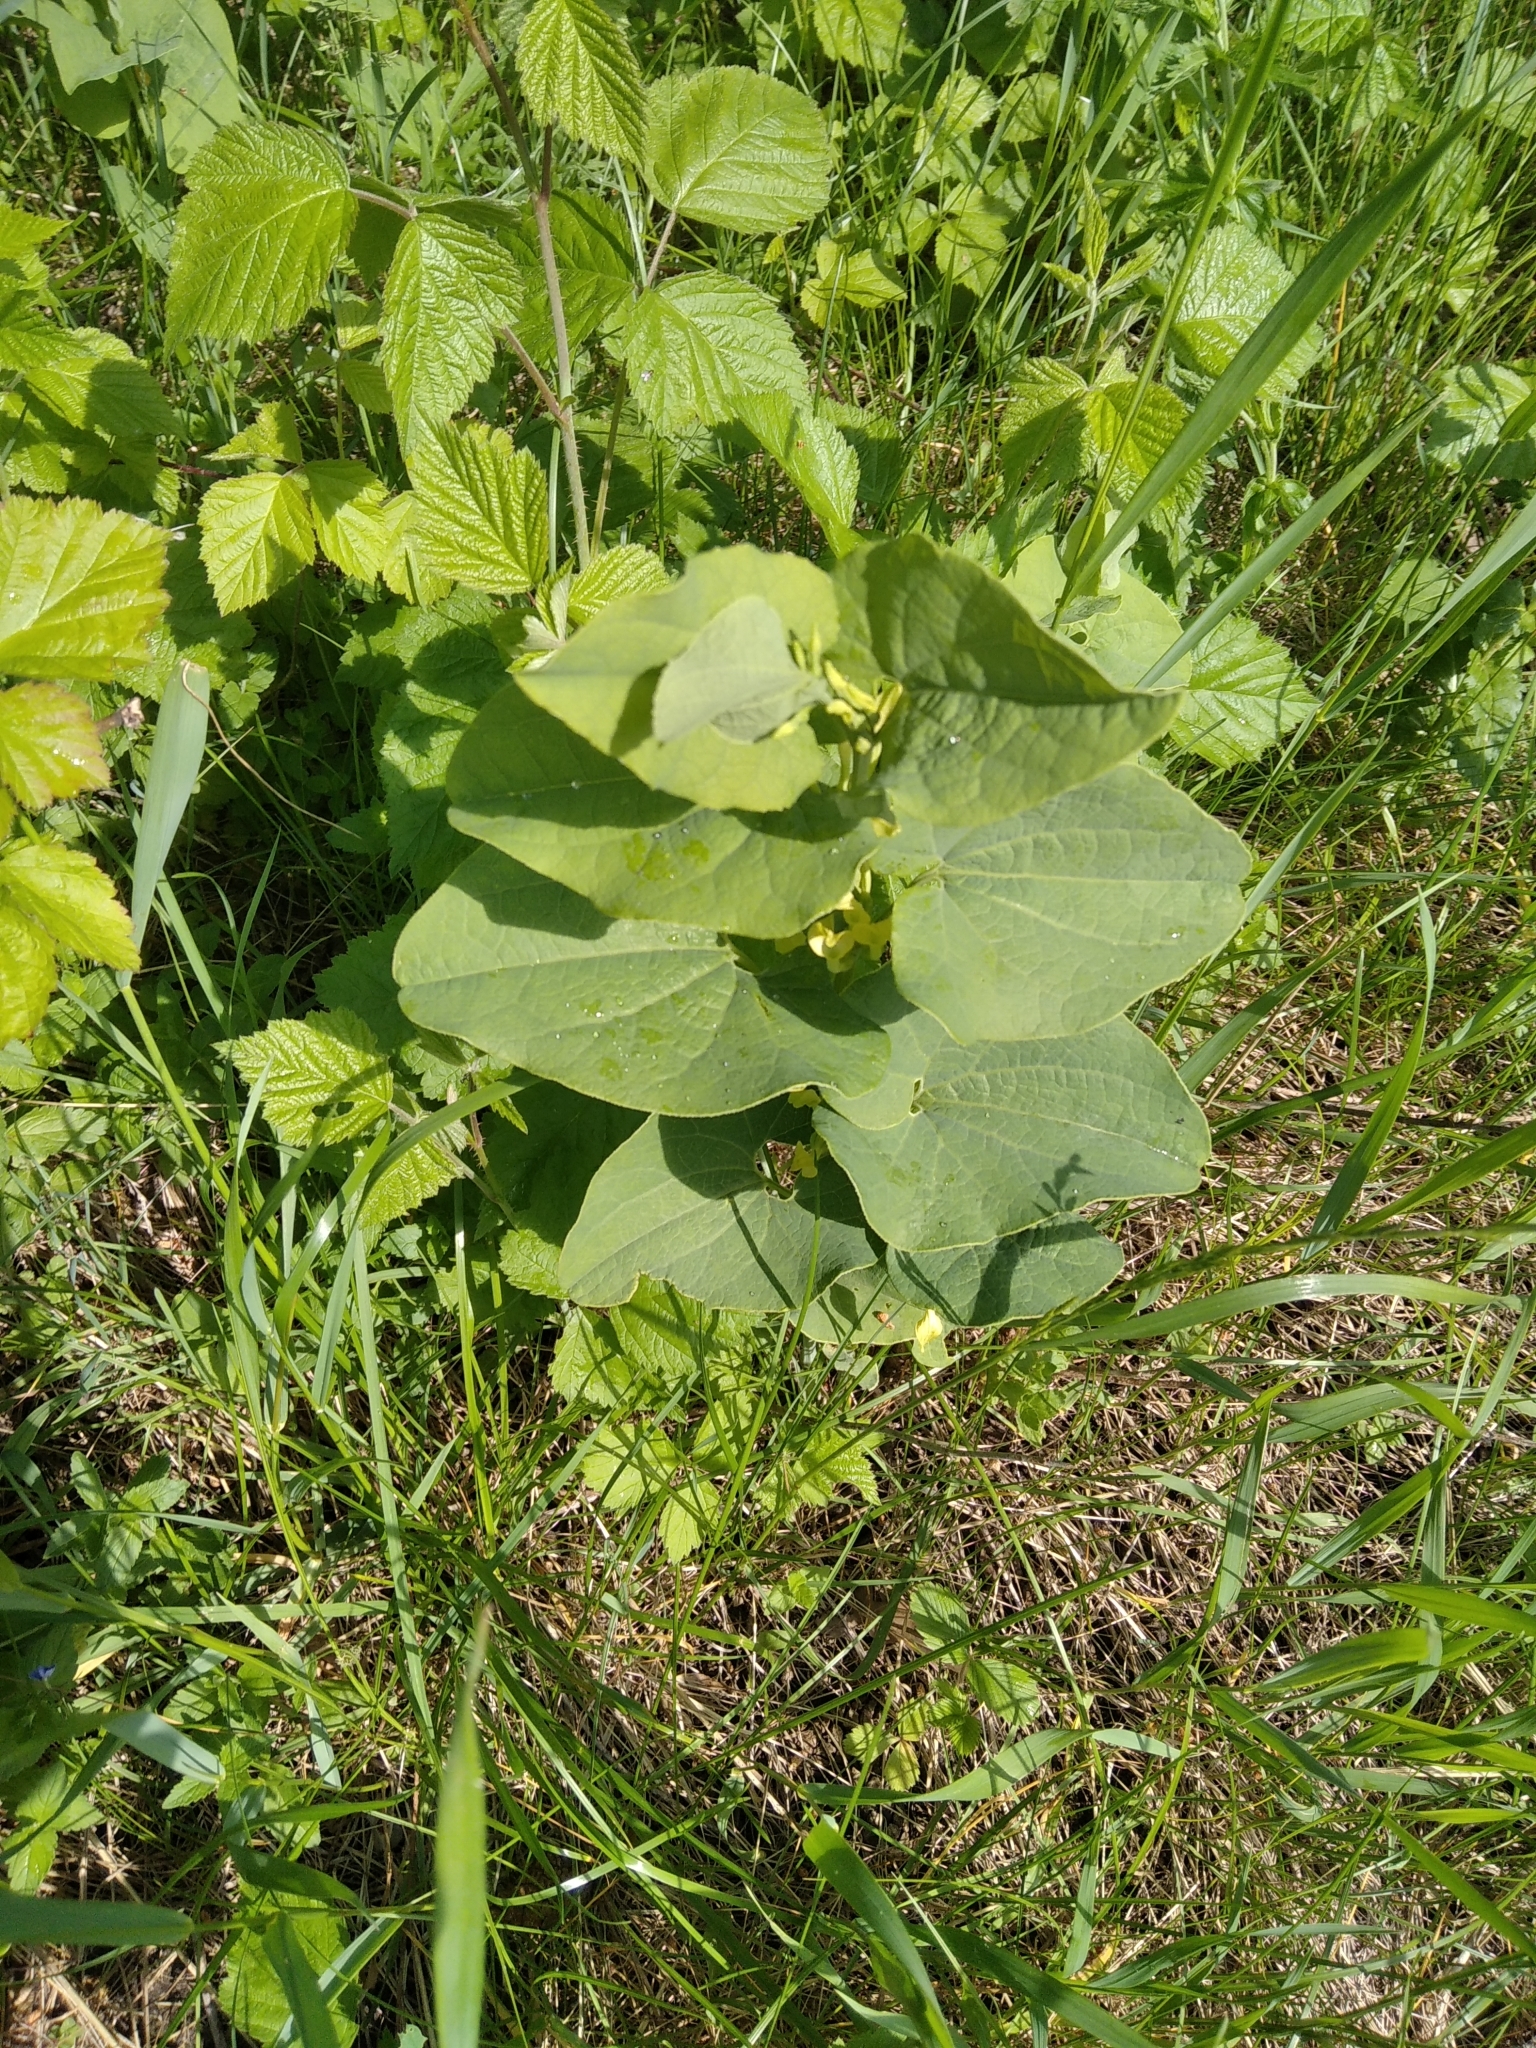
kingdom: Plantae
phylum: Tracheophyta
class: Magnoliopsida
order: Piperales
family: Aristolochiaceae
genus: Aristolochia
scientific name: Aristolochia clematitis
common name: Birthwort
